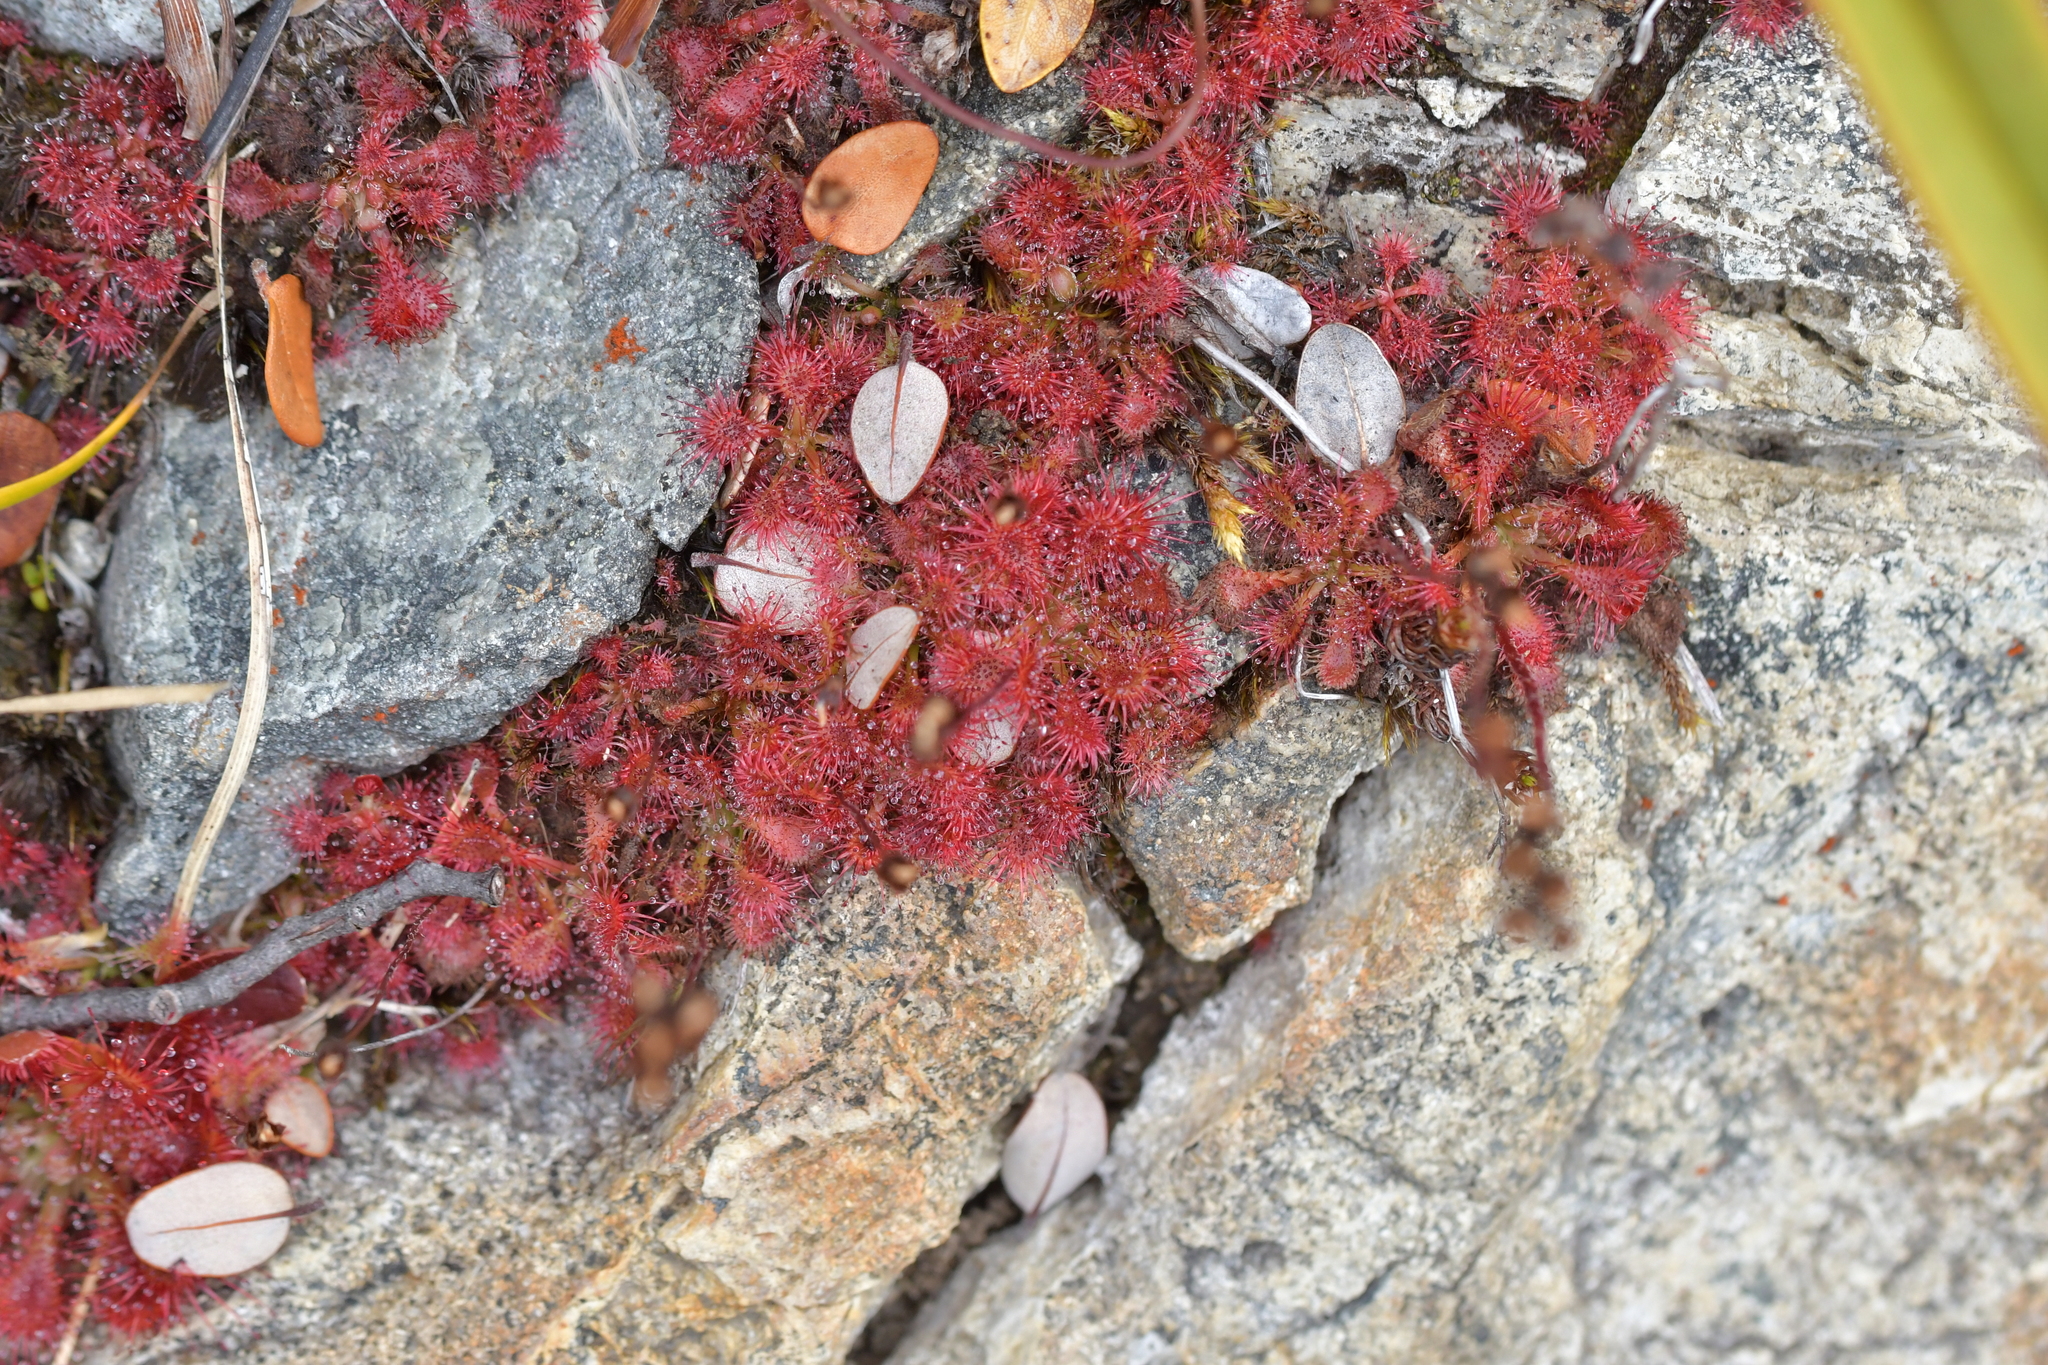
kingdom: Plantae
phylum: Tracheophyta
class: Magnoliopsida
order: Caryophyllales
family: Droseraceae
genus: Drosera
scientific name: Drosera spatulata
